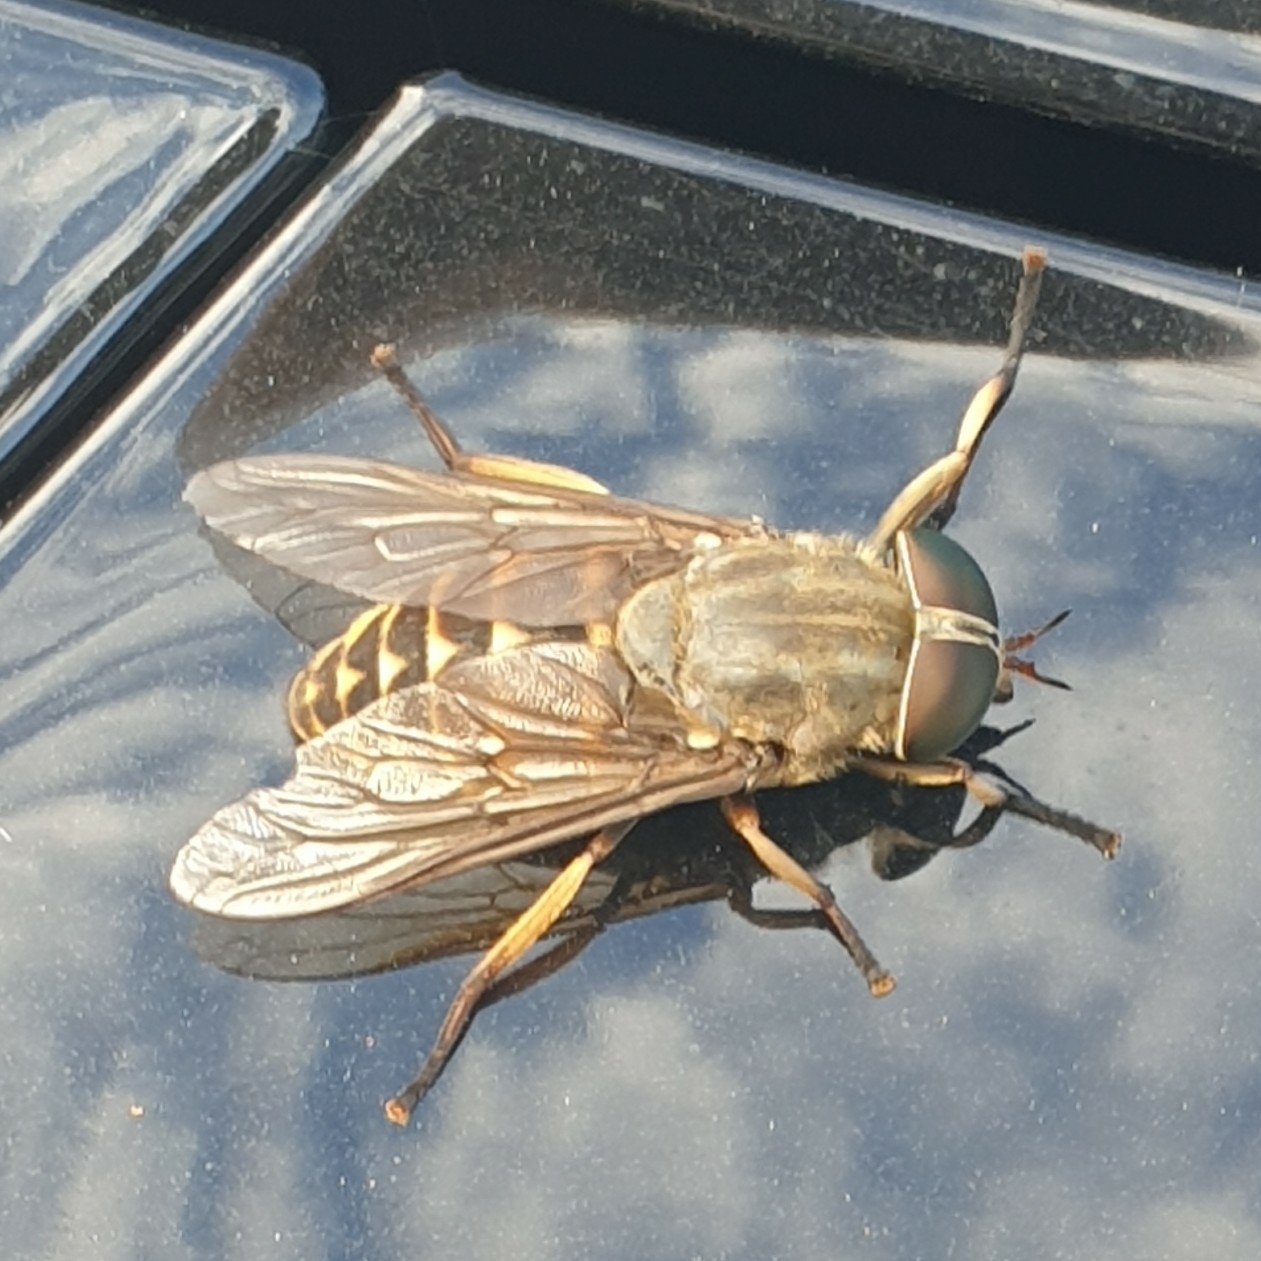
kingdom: Animalia
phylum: Arthropoda
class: Insecta
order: Diptera
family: Tabanidae
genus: Tabanus
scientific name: Tabanus sudeticus
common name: Dark giant horsefly
